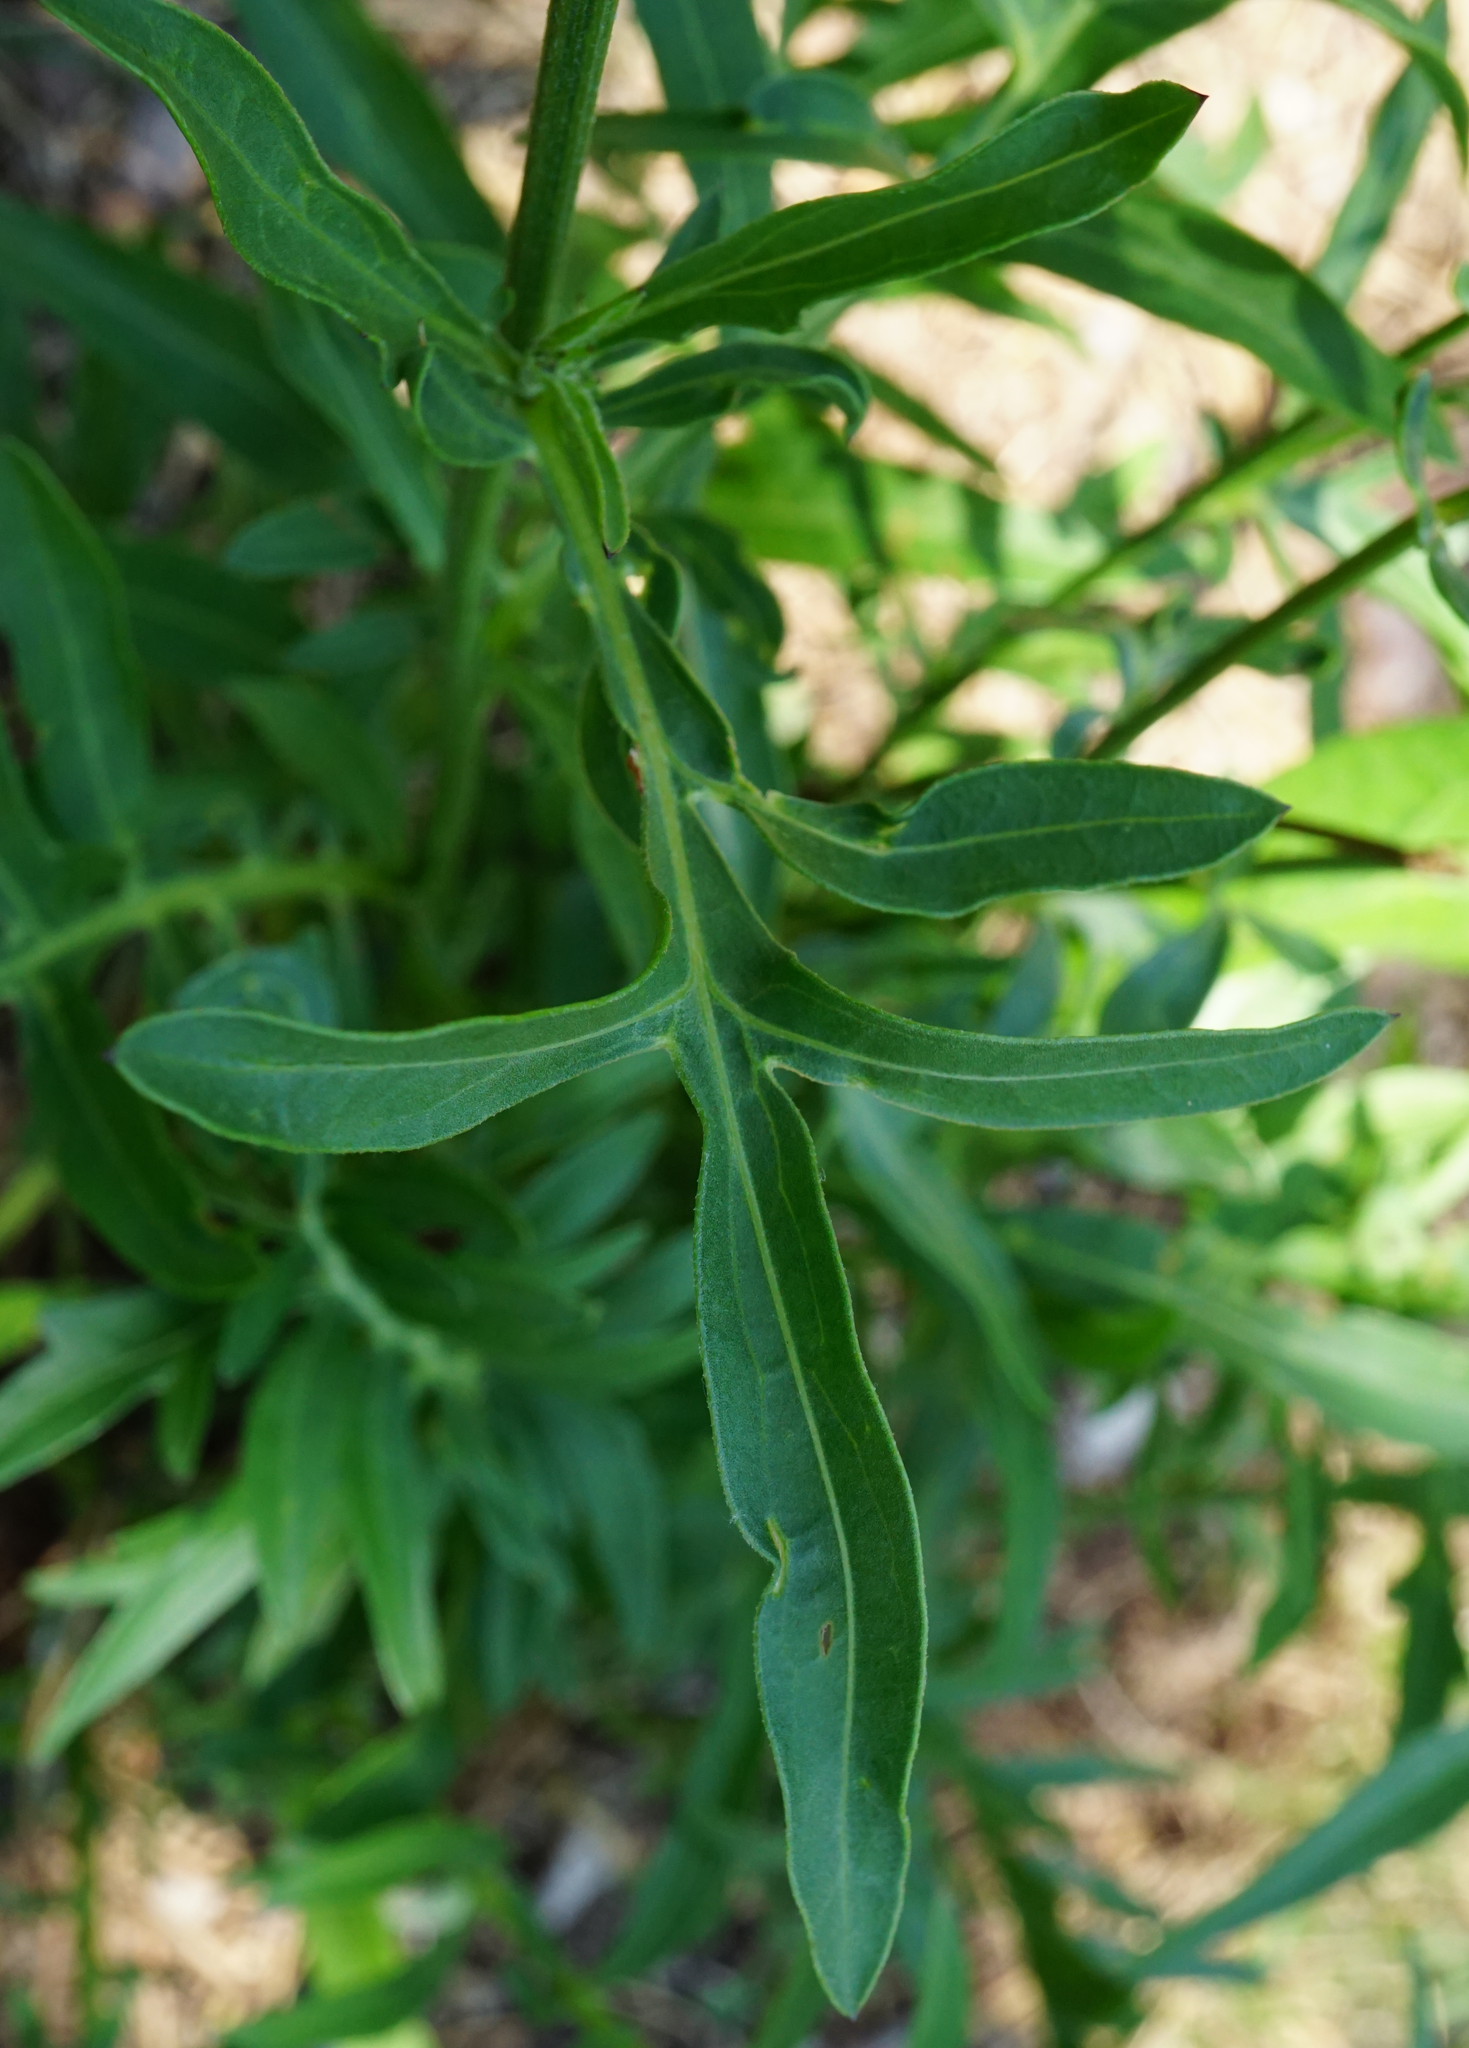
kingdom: Plantae
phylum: Tracheophyta
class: Magnoliopsida
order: Asterales
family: Asteraceae
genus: Centaurea
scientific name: Centaurea scabiosa
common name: Greater knapweed
